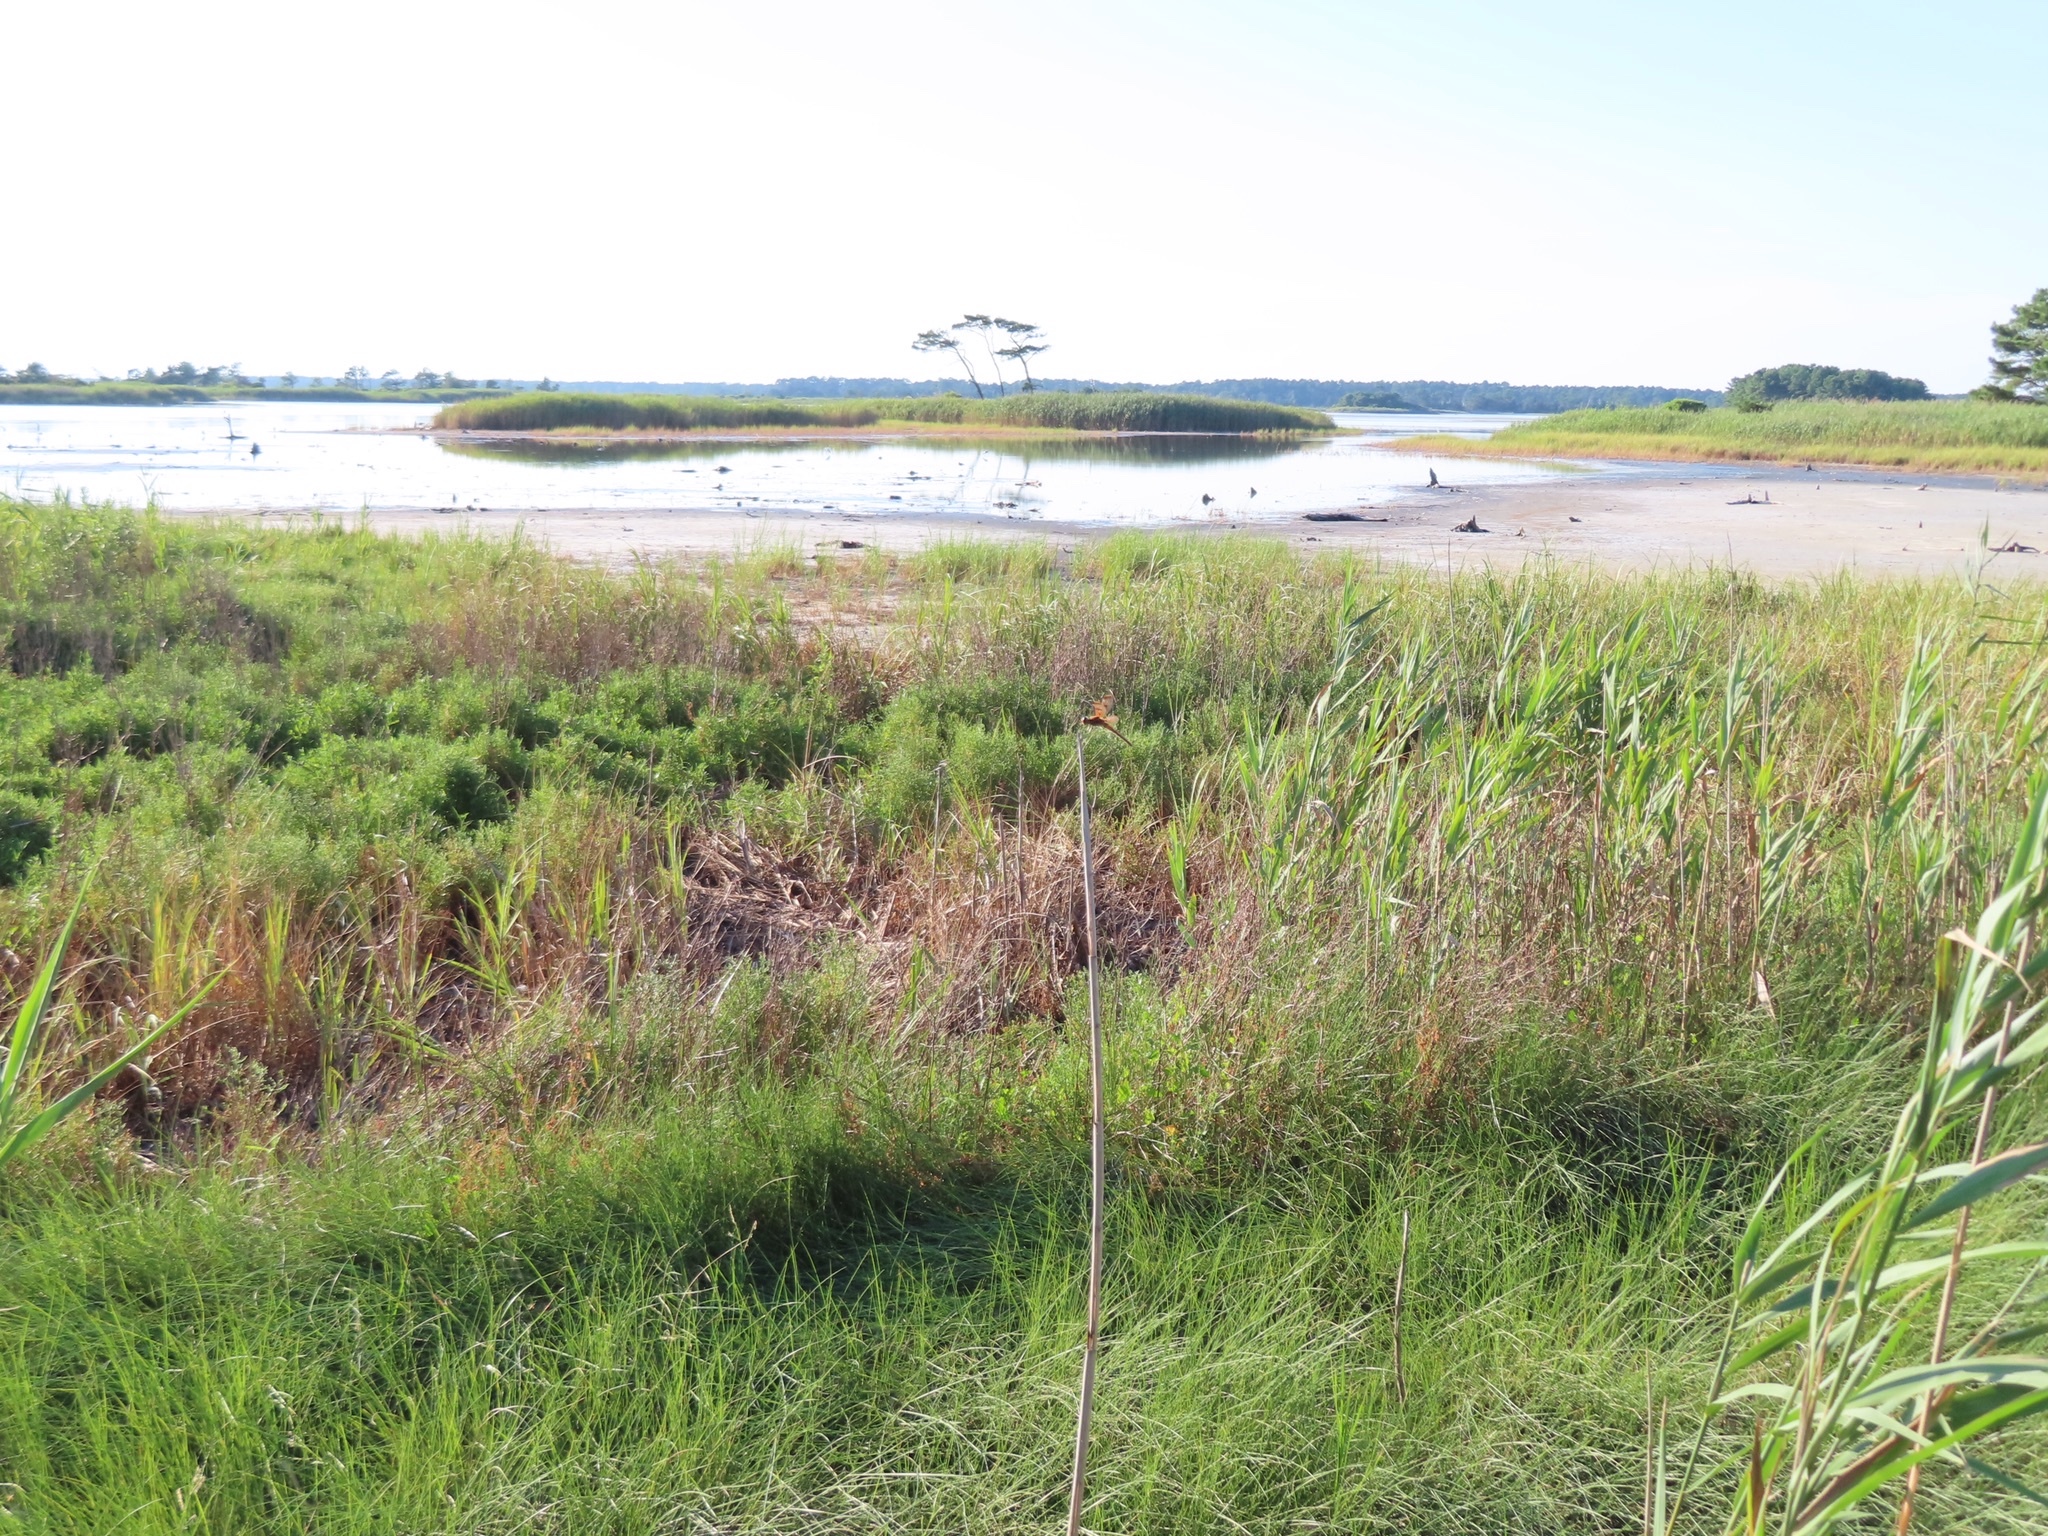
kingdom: Animalia
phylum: Arthropoda
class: Insecta
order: Odonata
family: Libellulidae
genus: Libellula
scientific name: Libellula semifasciata
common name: Painted skimmer
